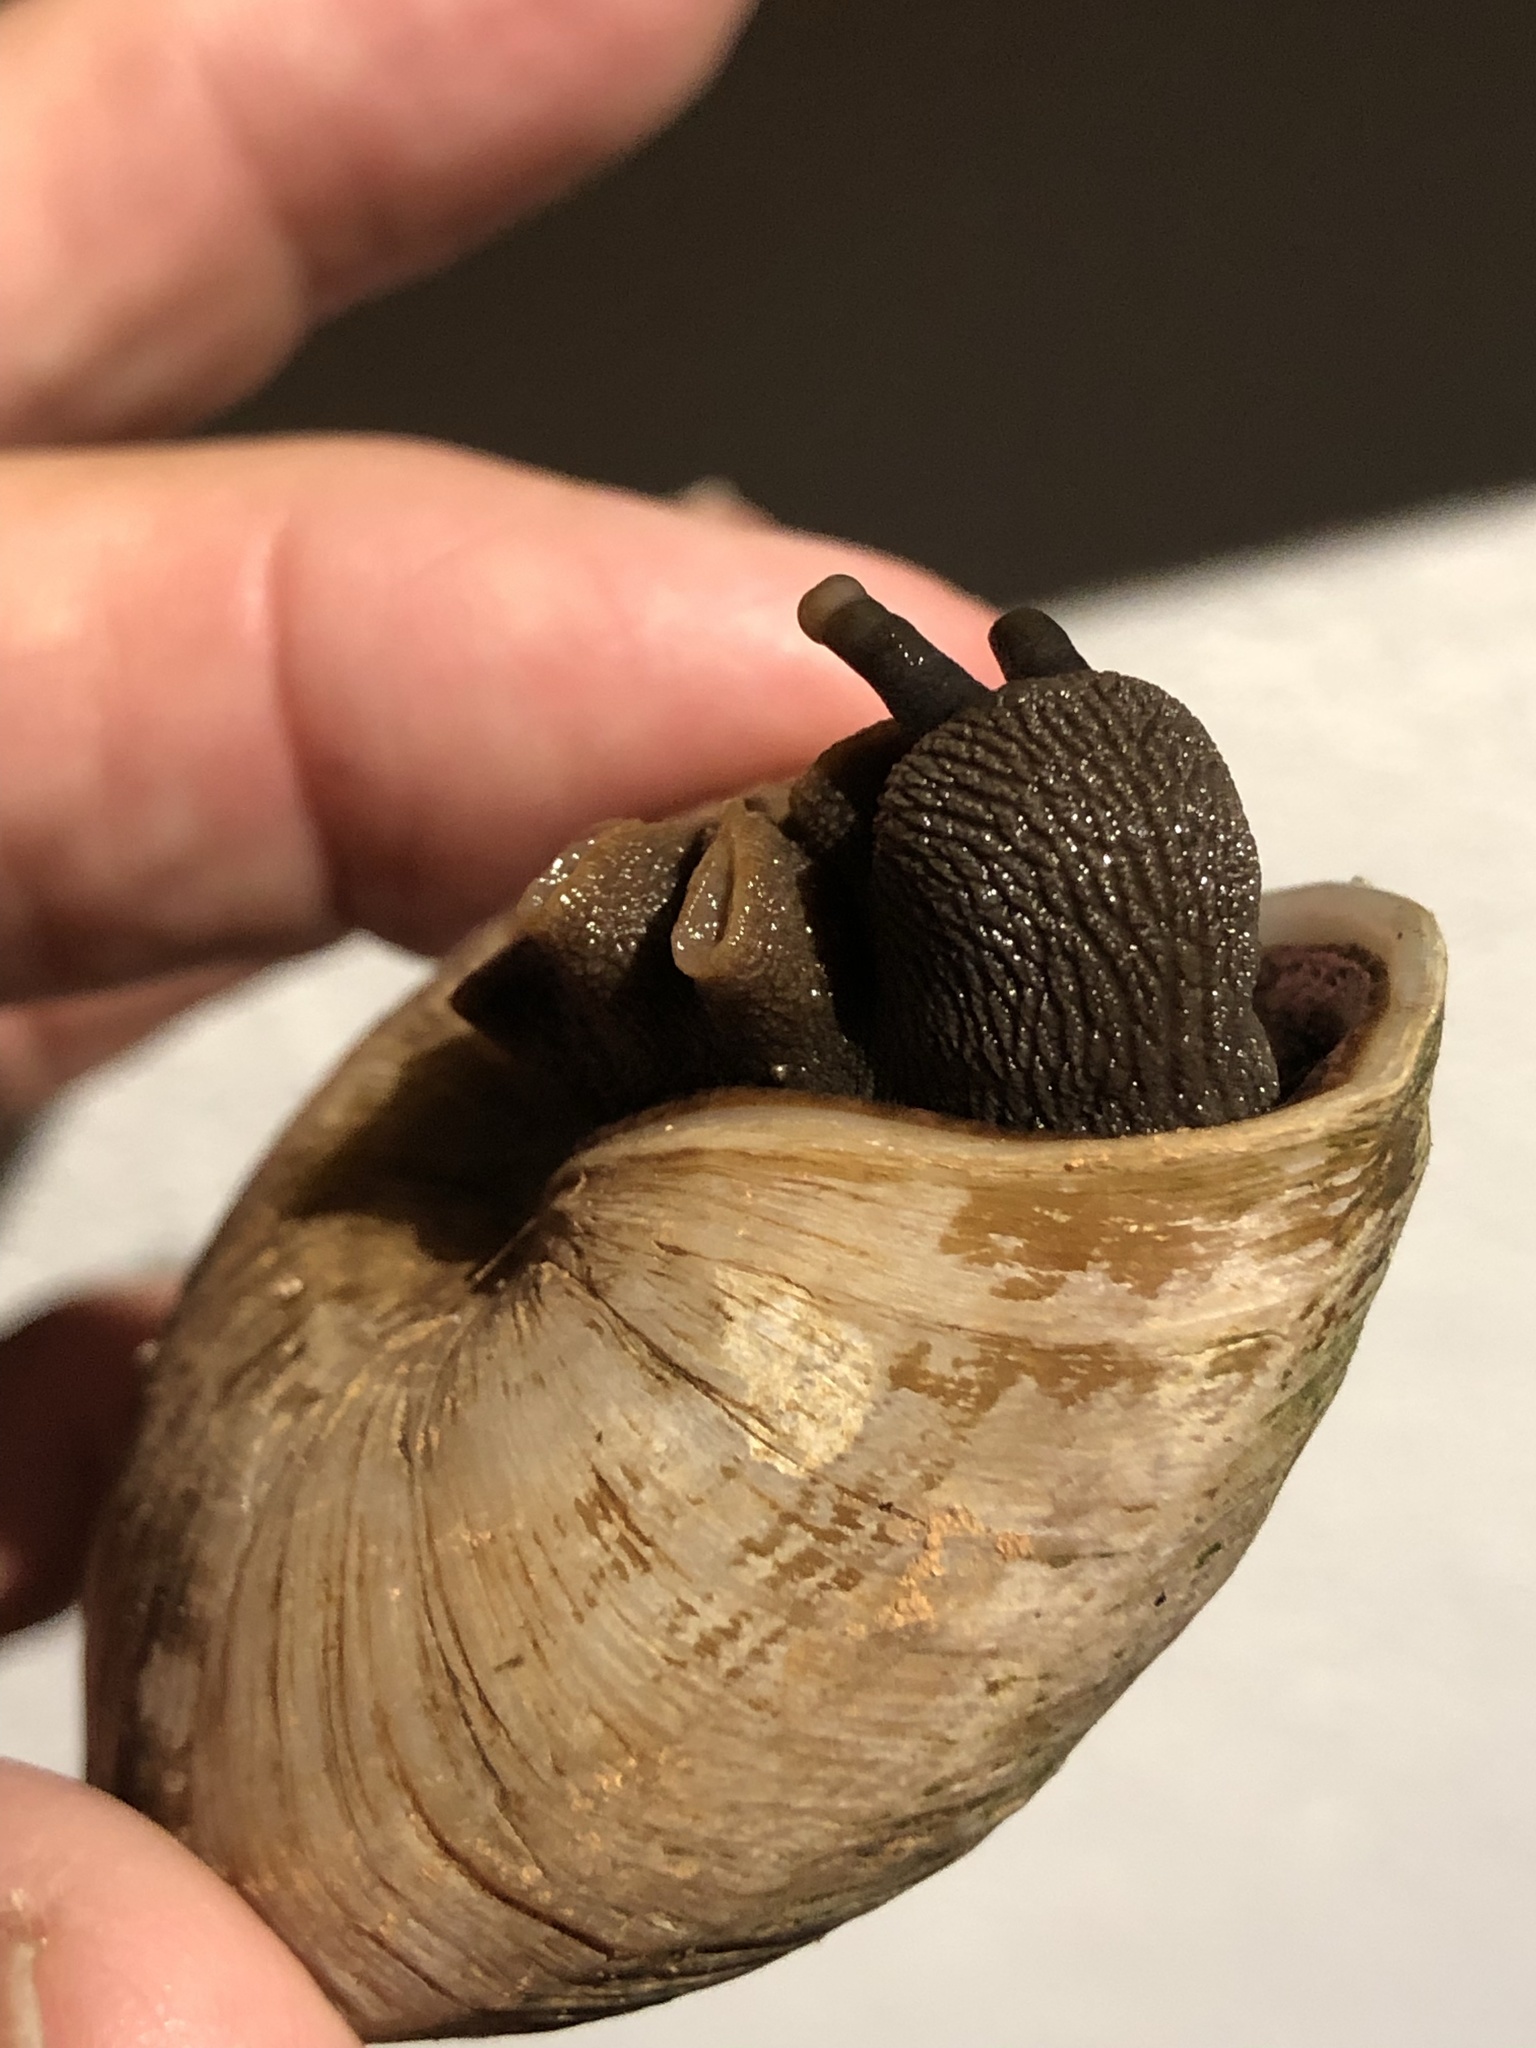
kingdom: Animalia
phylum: Mollusca
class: Gastropoda
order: Stylommatophora
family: Solaropsidae
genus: Caracolus
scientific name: Caracolus carocolla
